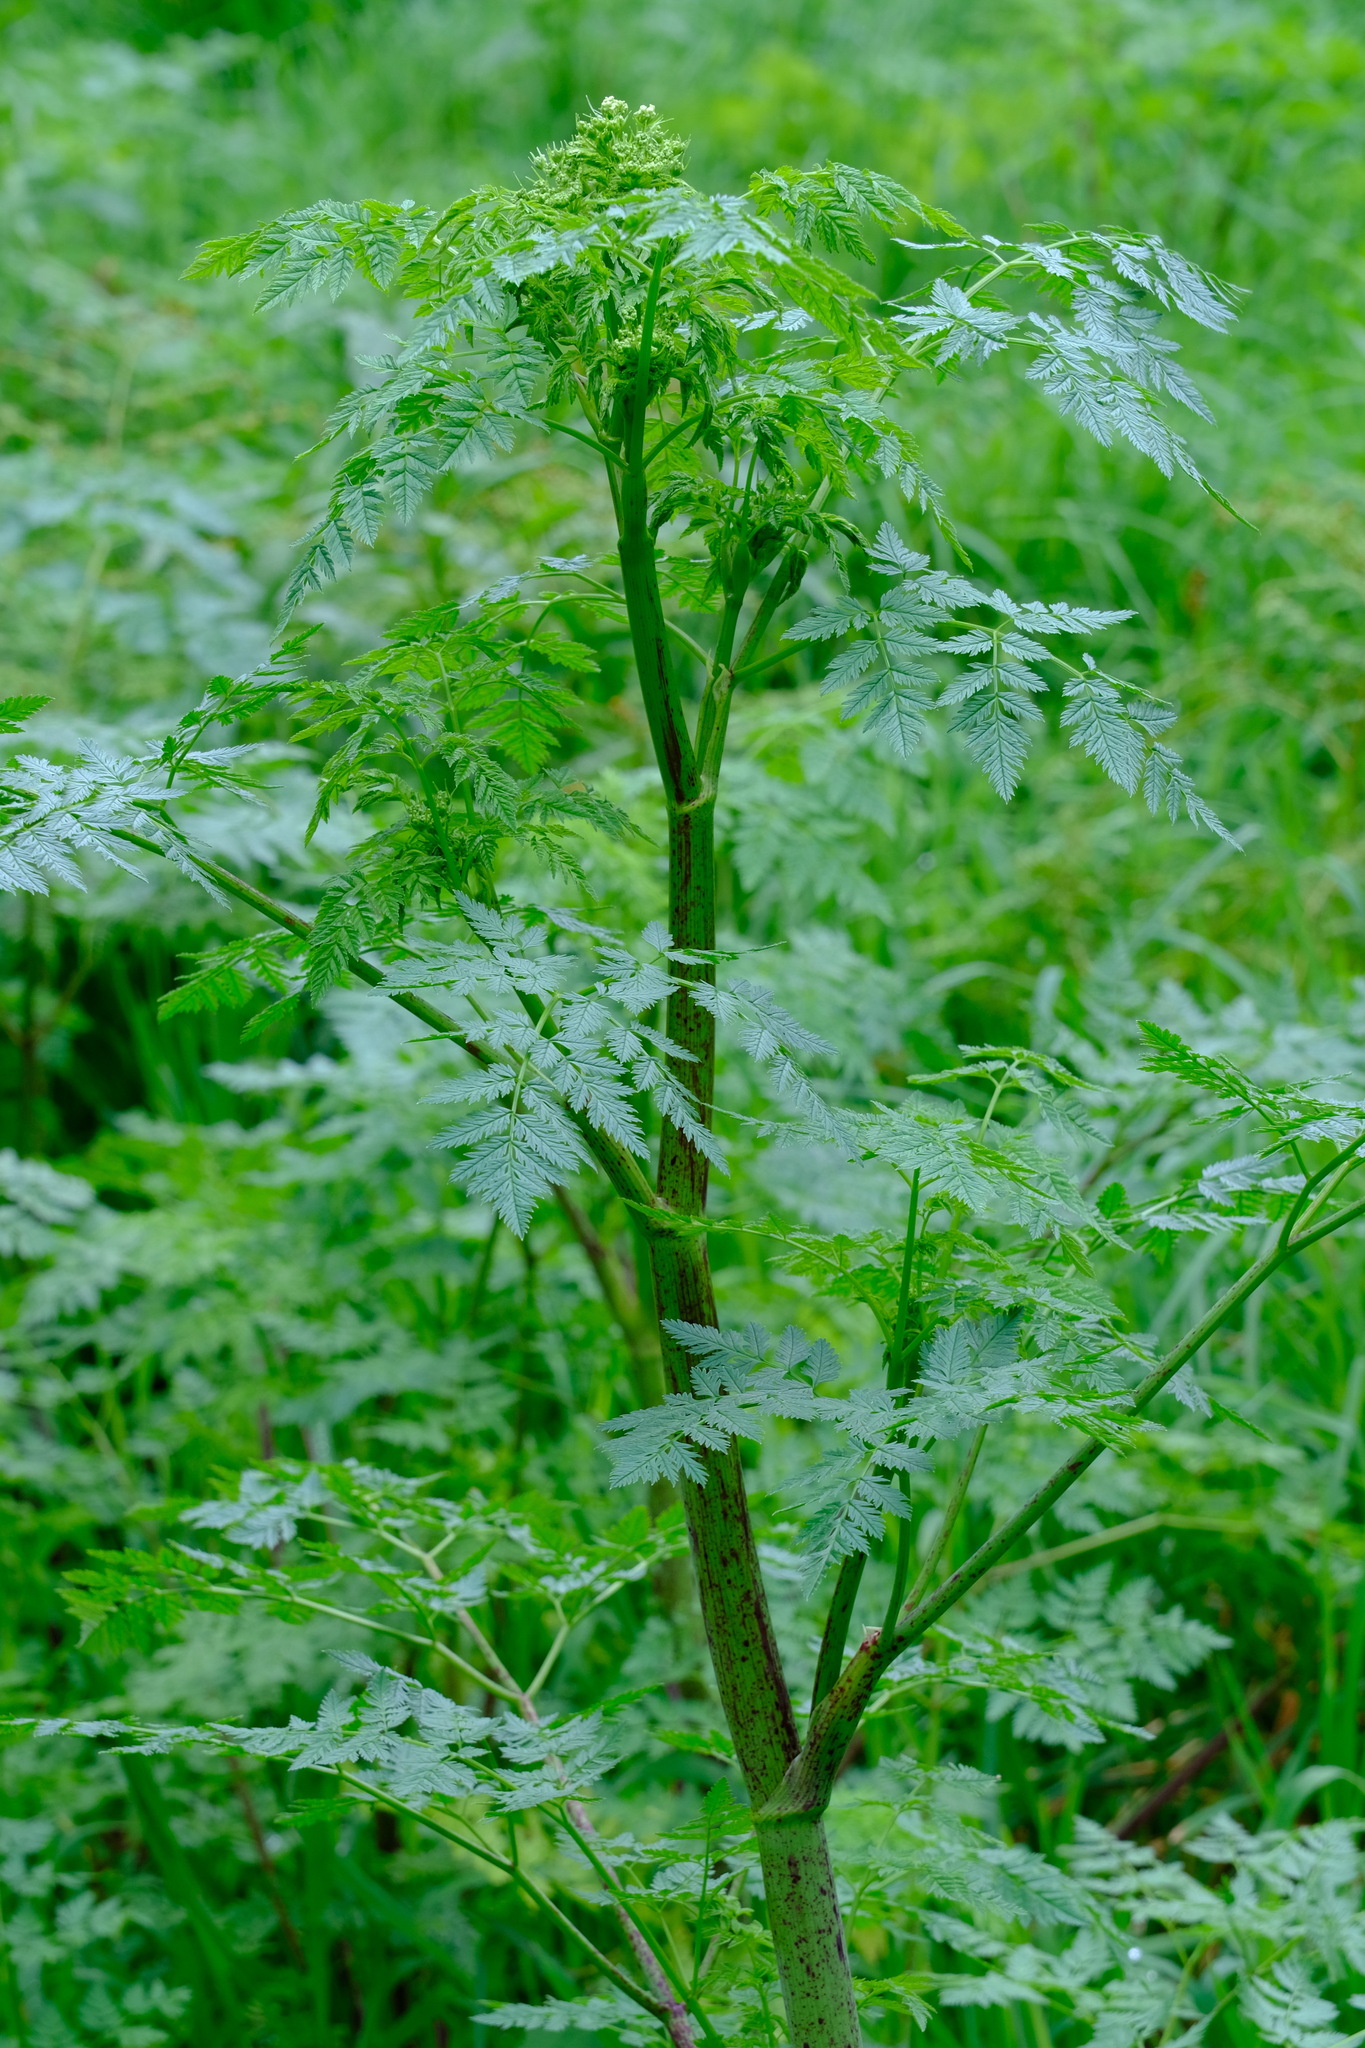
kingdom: Plantae
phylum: Tracheophyta
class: Magnoliopsida
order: Apiales
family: Apiaceae
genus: Conium
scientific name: Conium maculatum
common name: Hemlock
